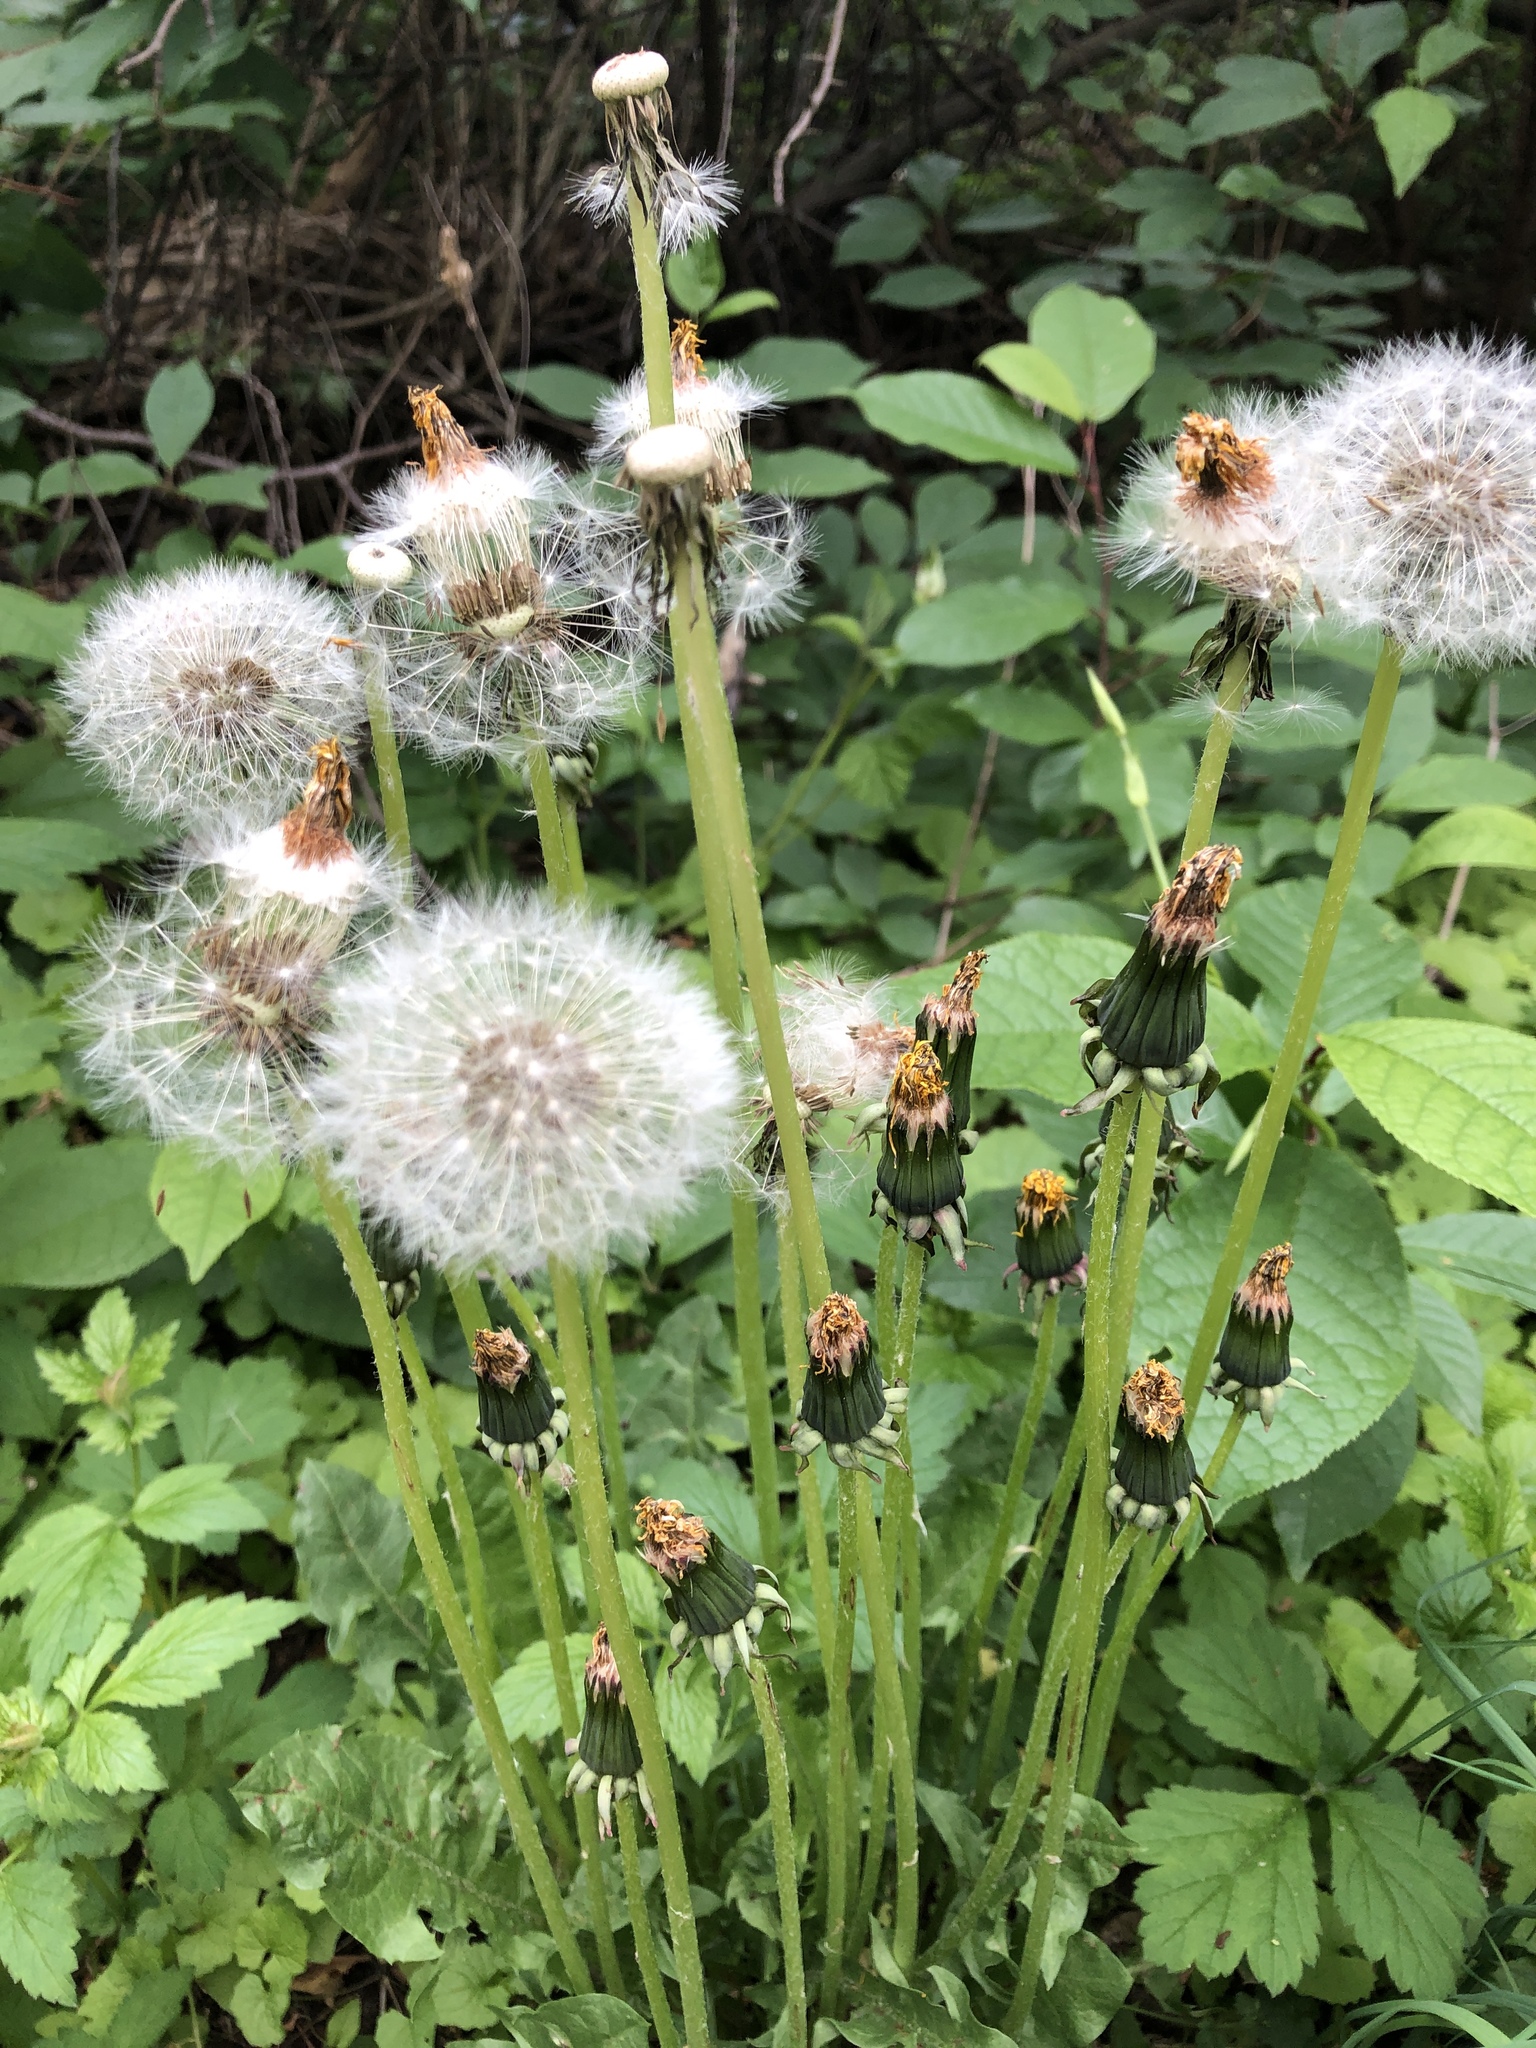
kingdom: Plantae
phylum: Tracheophyta
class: Magnoliopsida
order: Asterales
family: Asteraceae
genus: Taraxacum
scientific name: Taraxacum officinale
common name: Common dandelion
